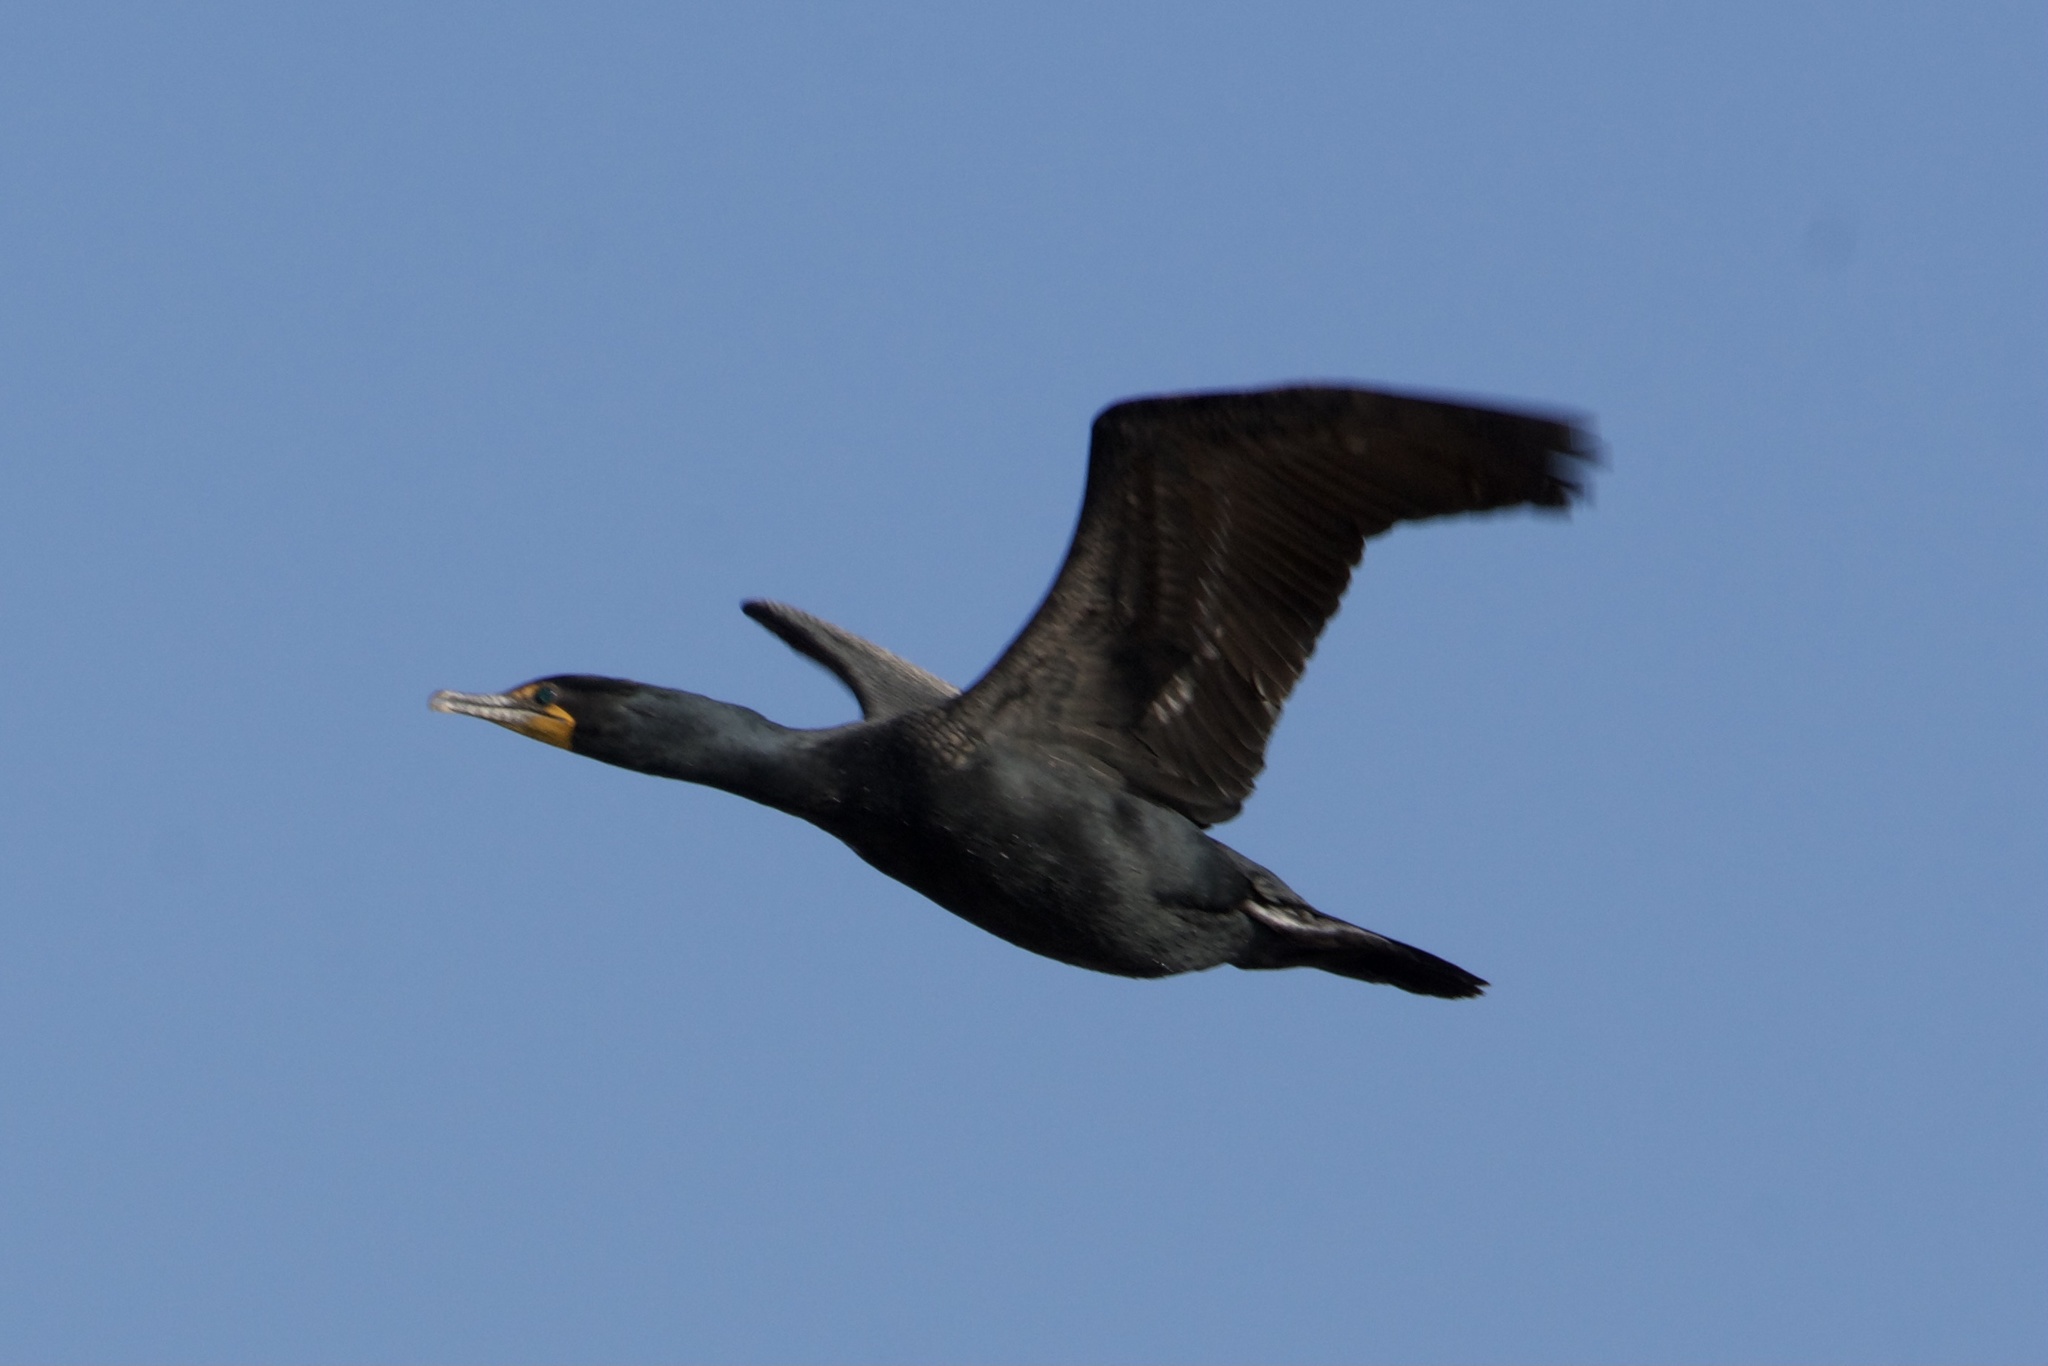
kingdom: Animalia
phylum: Chordata
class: Aves
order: Suliformes
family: Phalacrocoracidae
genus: Phalacrocorax
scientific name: Phalacrocorax auritus
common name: Double-crested cormorant
